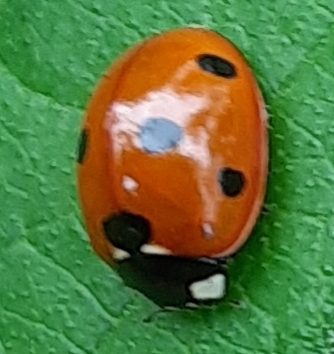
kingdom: Animalia
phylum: Arthropoda
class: Insecta
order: Coleoptera
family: Coccinellidae
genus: Coccinella
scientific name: Coccinella septempunctata
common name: Sevenspotted lady beetle
